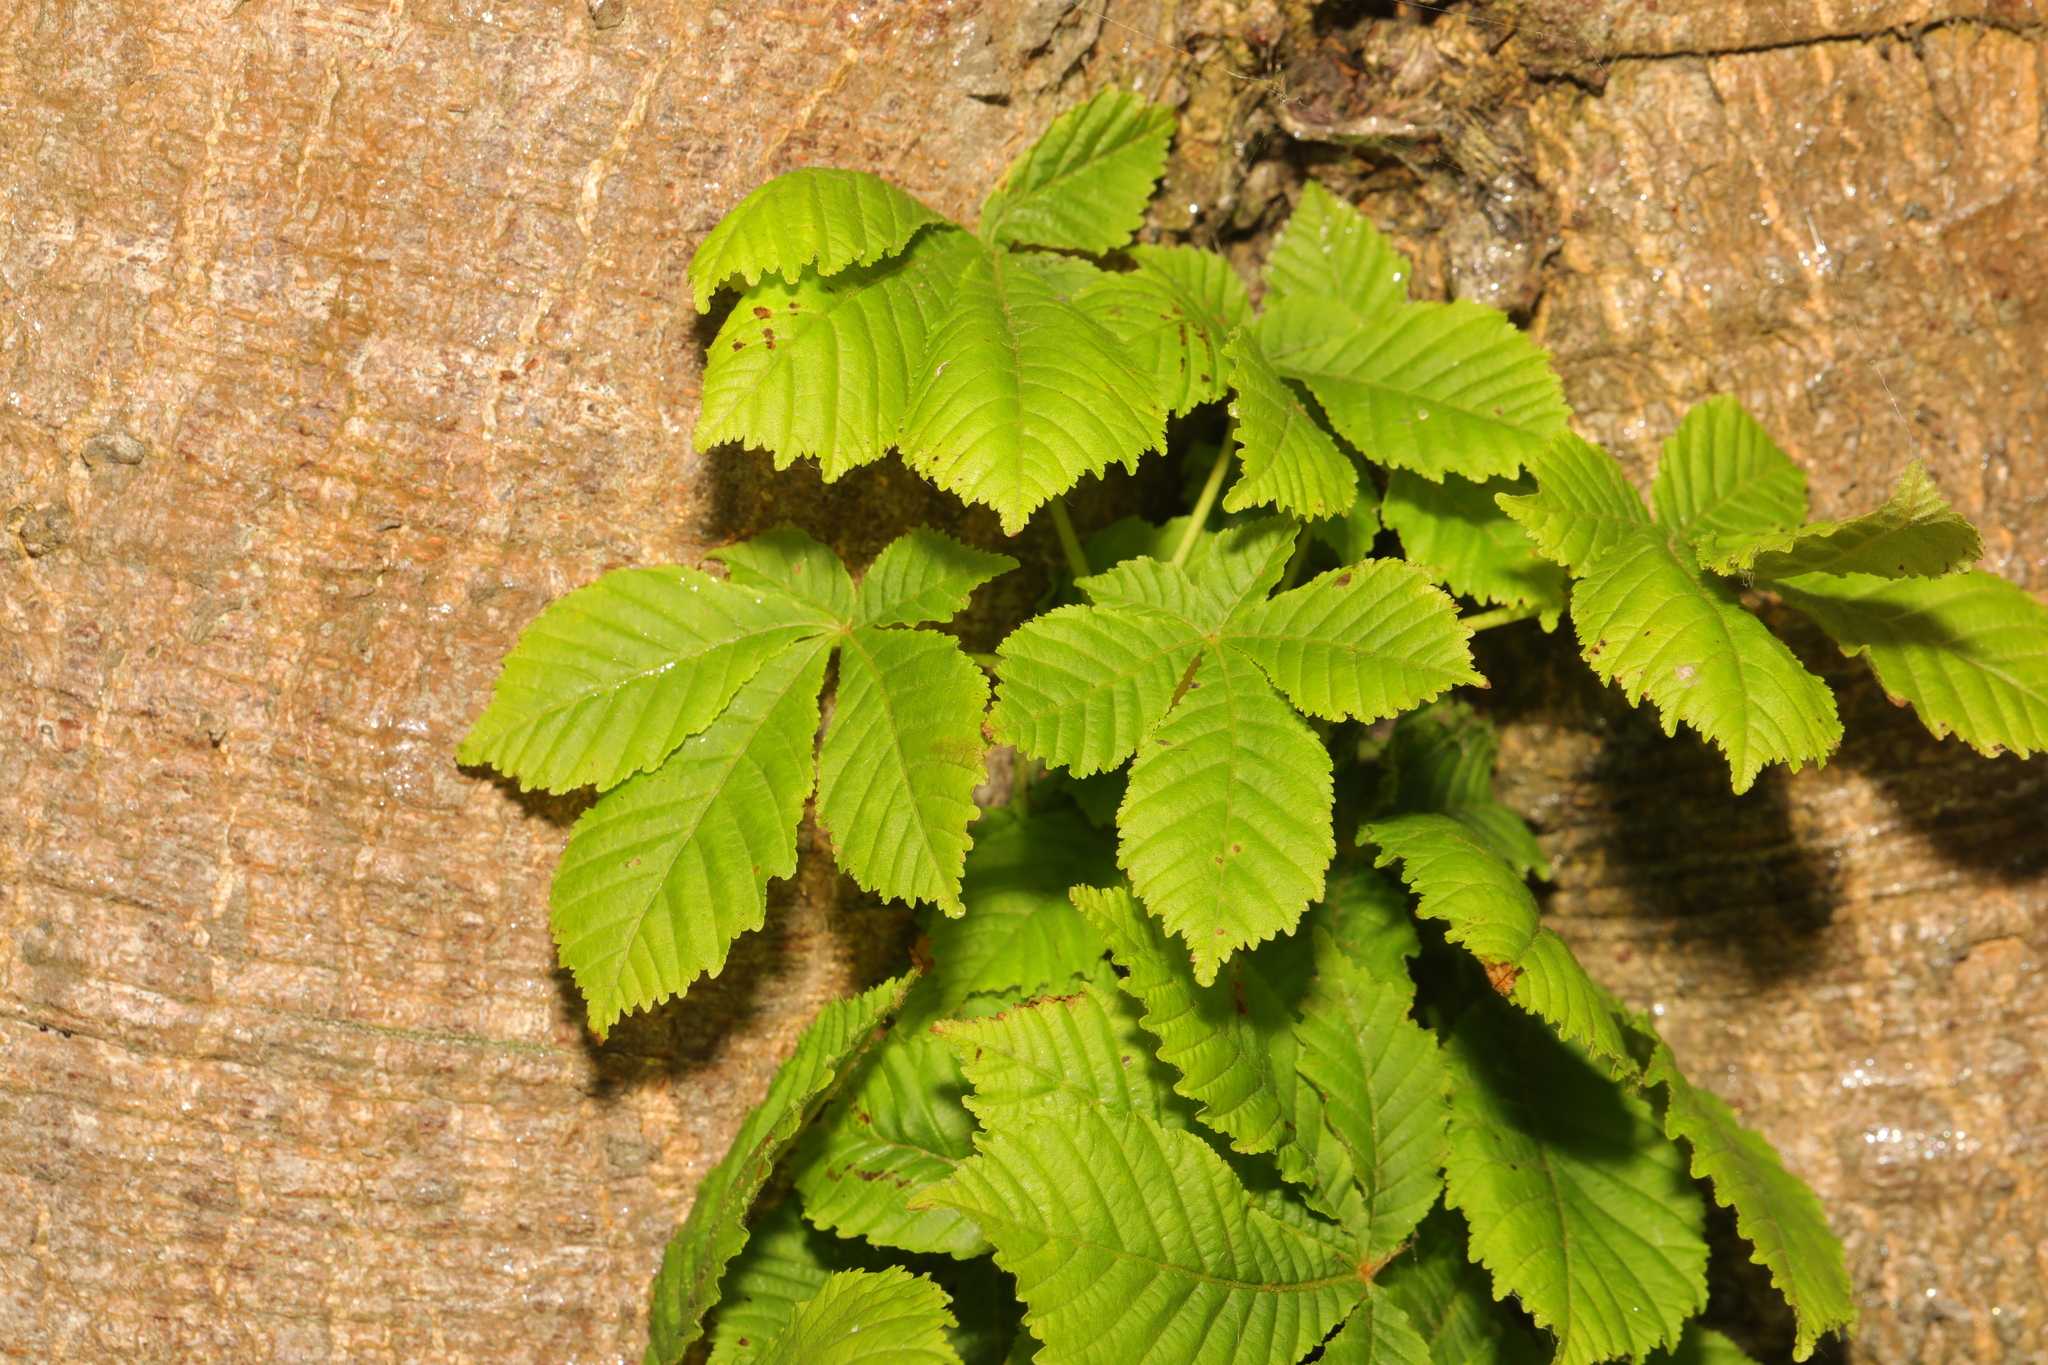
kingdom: Plantae
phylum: Tracheophyta
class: Magnoliopsida
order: Sapindales
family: Sapindaceae
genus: Aesculus
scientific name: Aesculus hippocastanum
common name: Horse-chestnut
